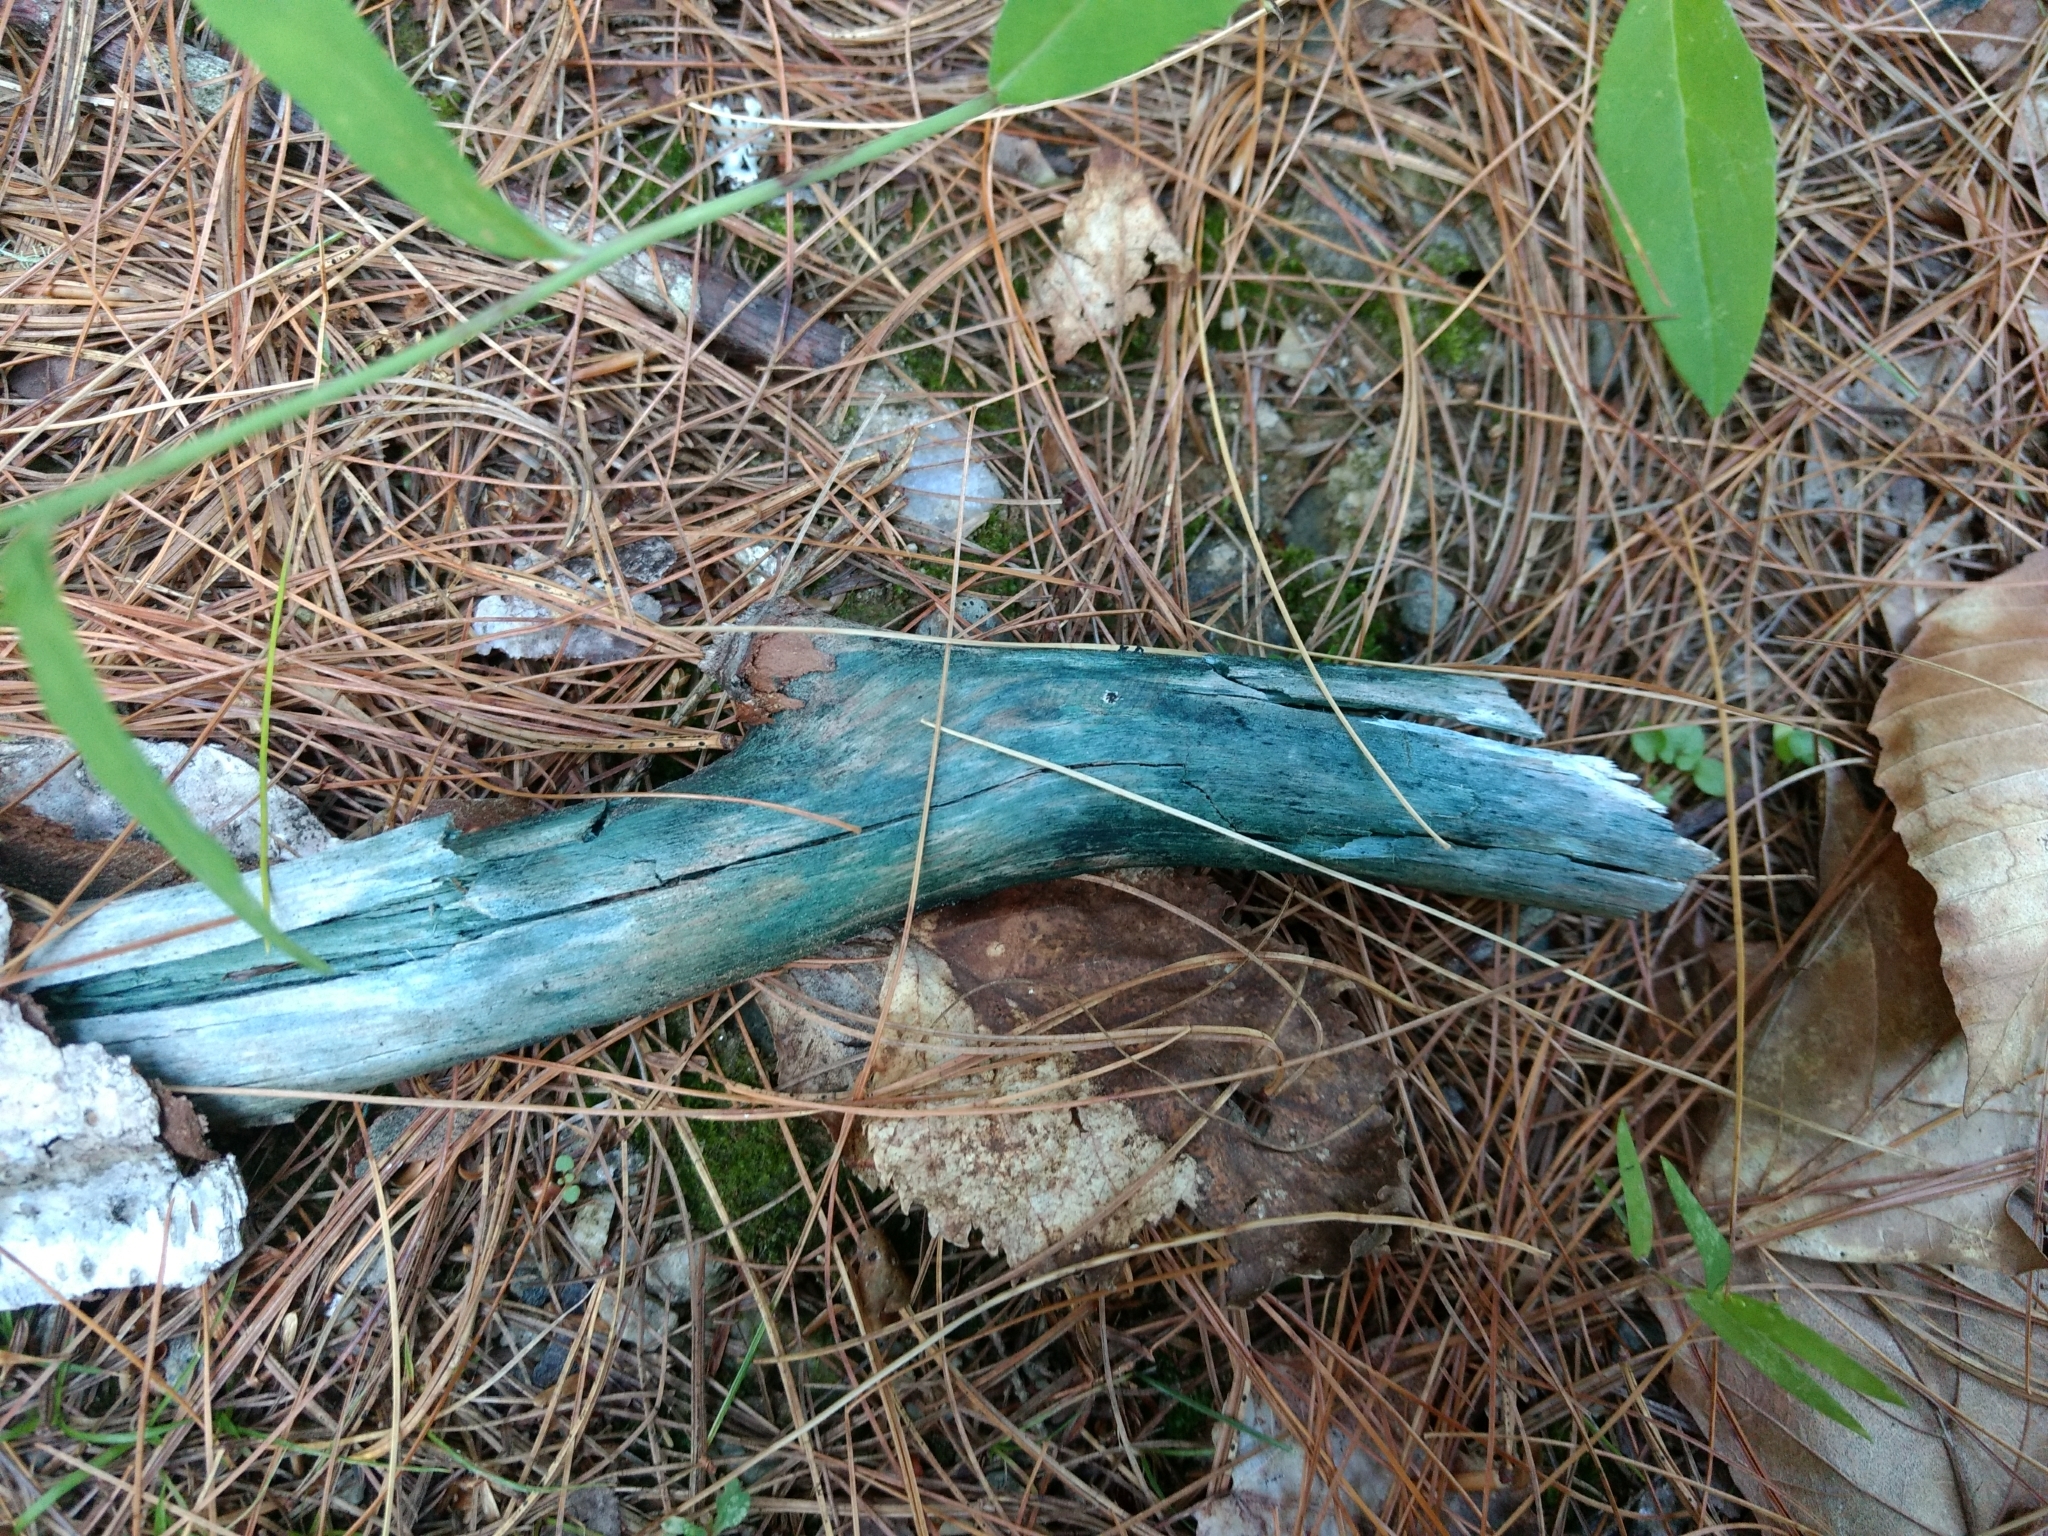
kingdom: Fungi
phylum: Ascomycota
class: Leotiomycetes
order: Helotiales
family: Chlorociboriaceae
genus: Chlorociboria
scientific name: Chlorociboria
